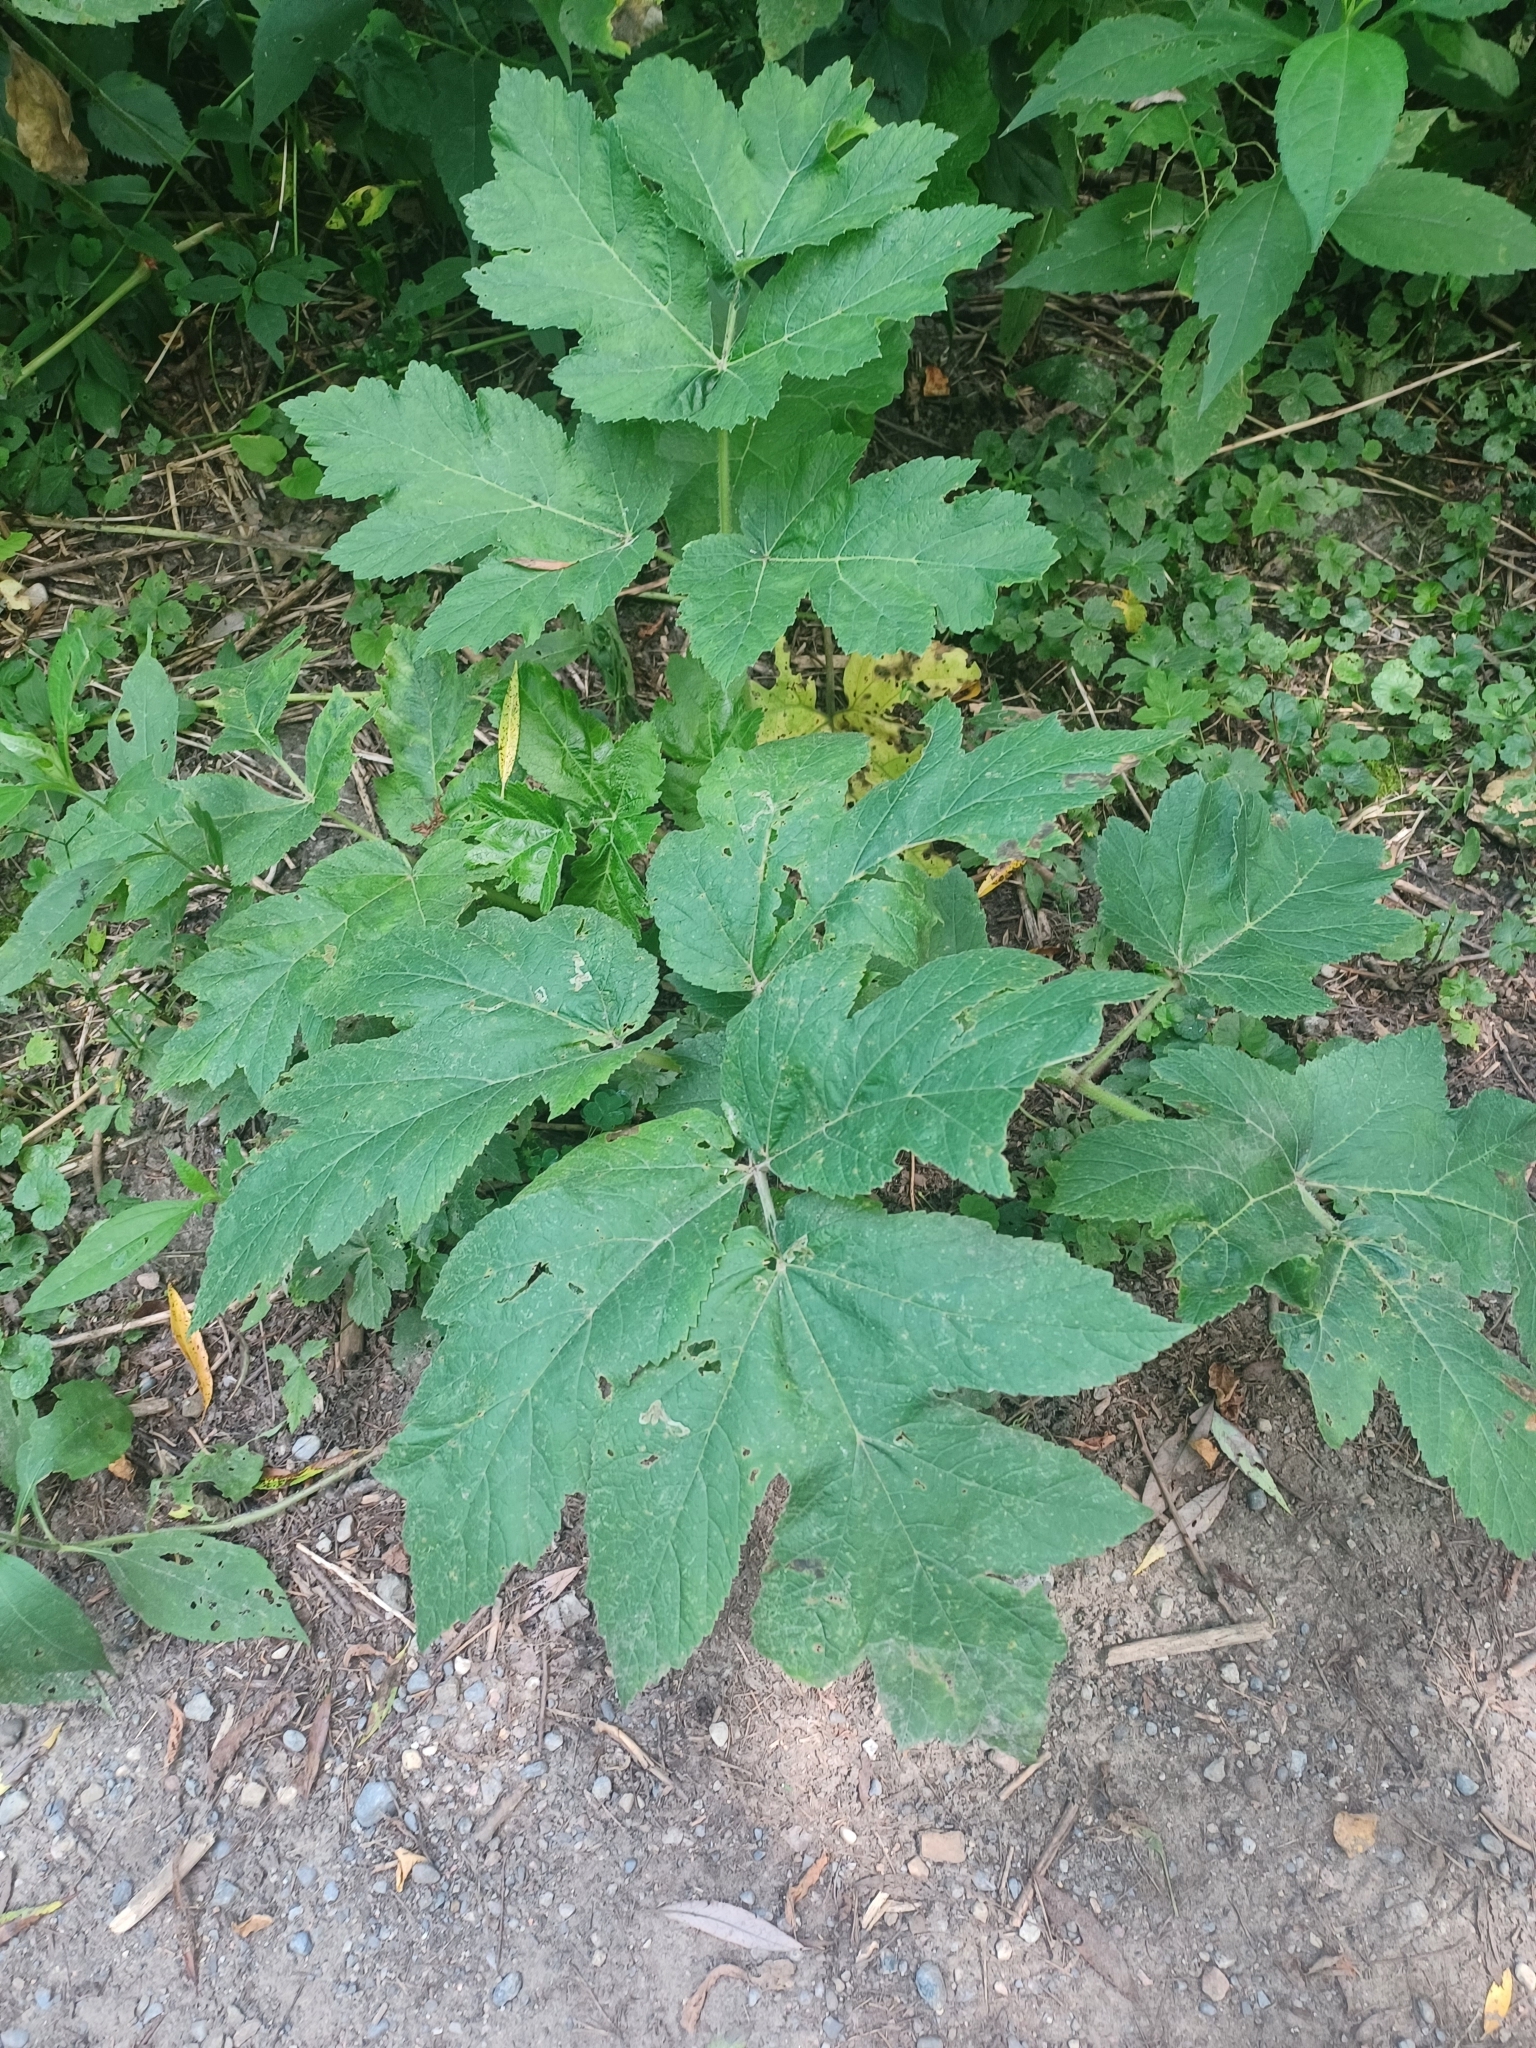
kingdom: Plantae
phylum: Tracheophyta
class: Magnoliopsida
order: Apiales
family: Apiaceae
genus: Heracleum
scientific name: Heracleum maximum
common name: American cow parsnip
